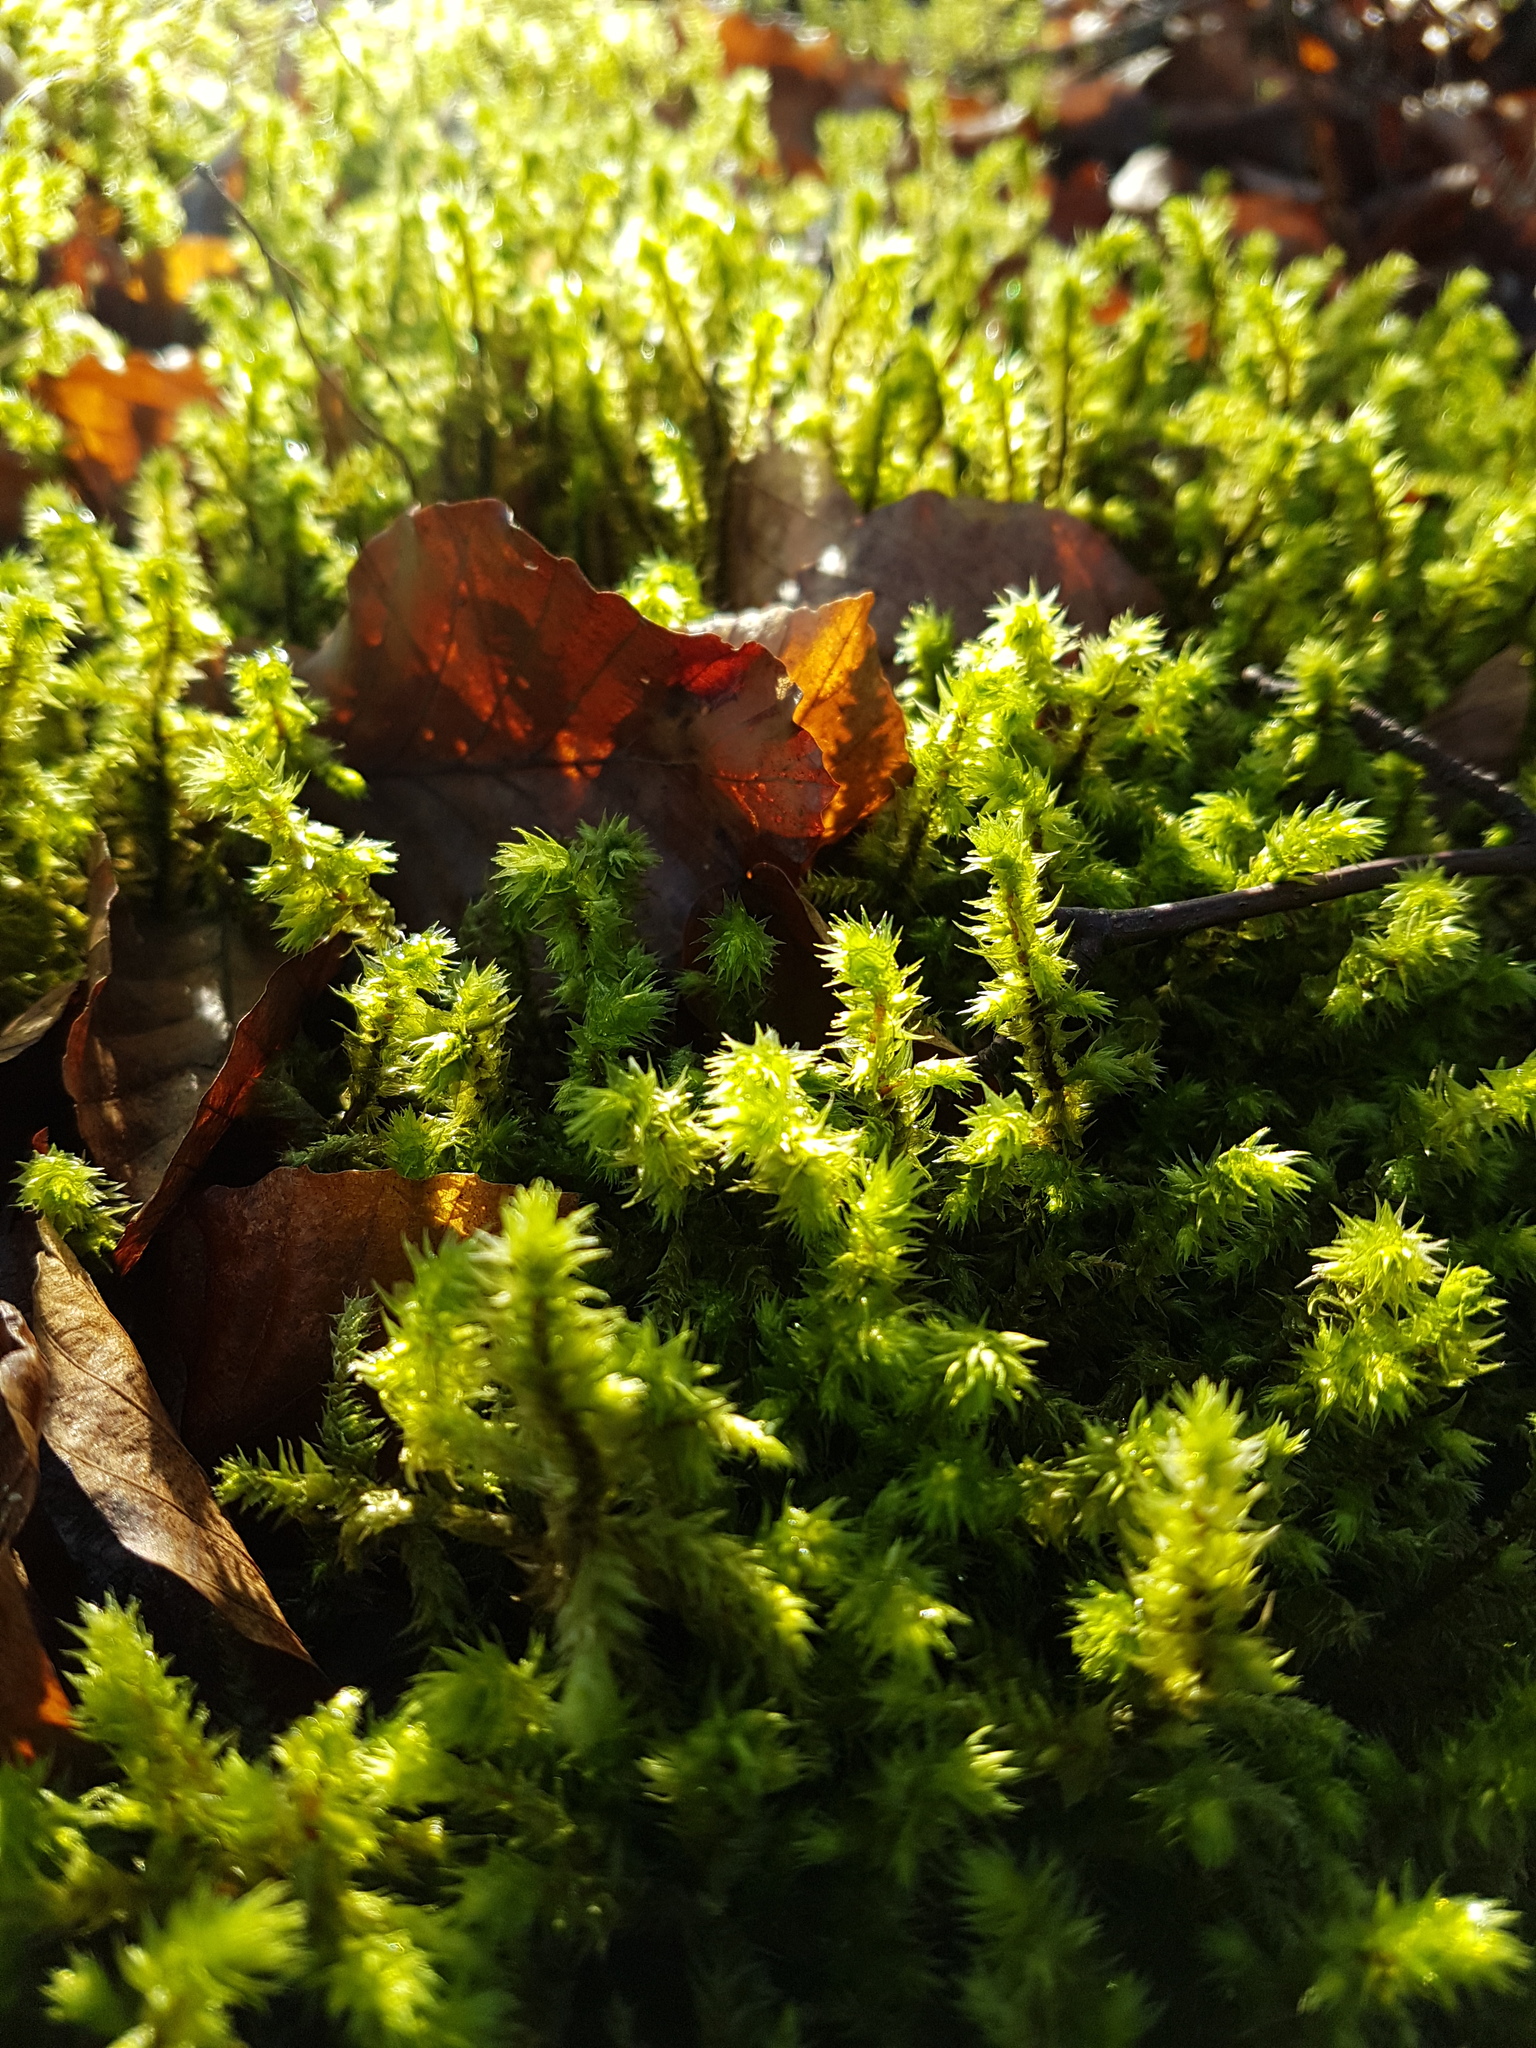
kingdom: Plantae
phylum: Bryophyta
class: Bryopsida
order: Hypnales
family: Hylocomiaceae
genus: Hylocomiadelphus
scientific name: Hylocomiadelphus triquetrus
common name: Rough goose neck moss
